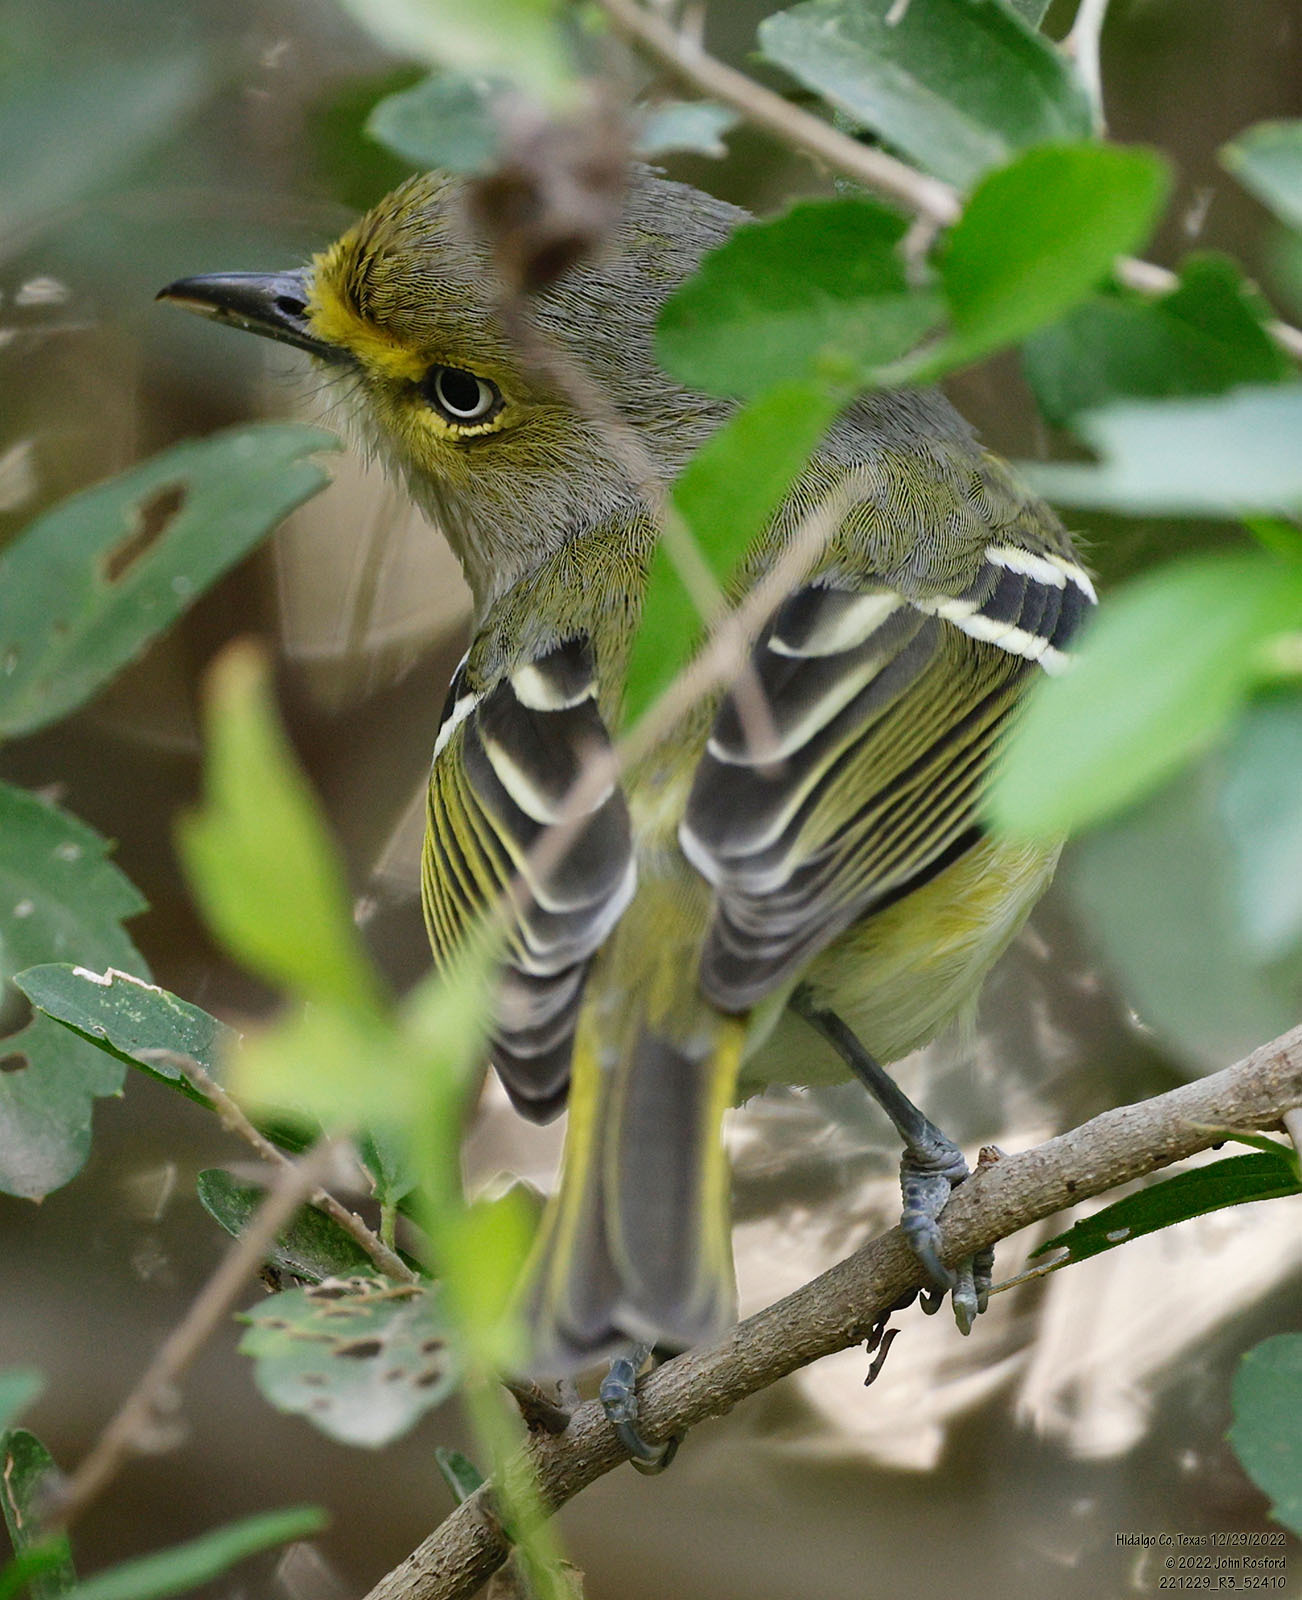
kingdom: Animalia
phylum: Chordata
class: Aves
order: Passeriformes
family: Vireonidae
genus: Vireo
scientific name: Vireo griseus
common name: White-eyed vireo
